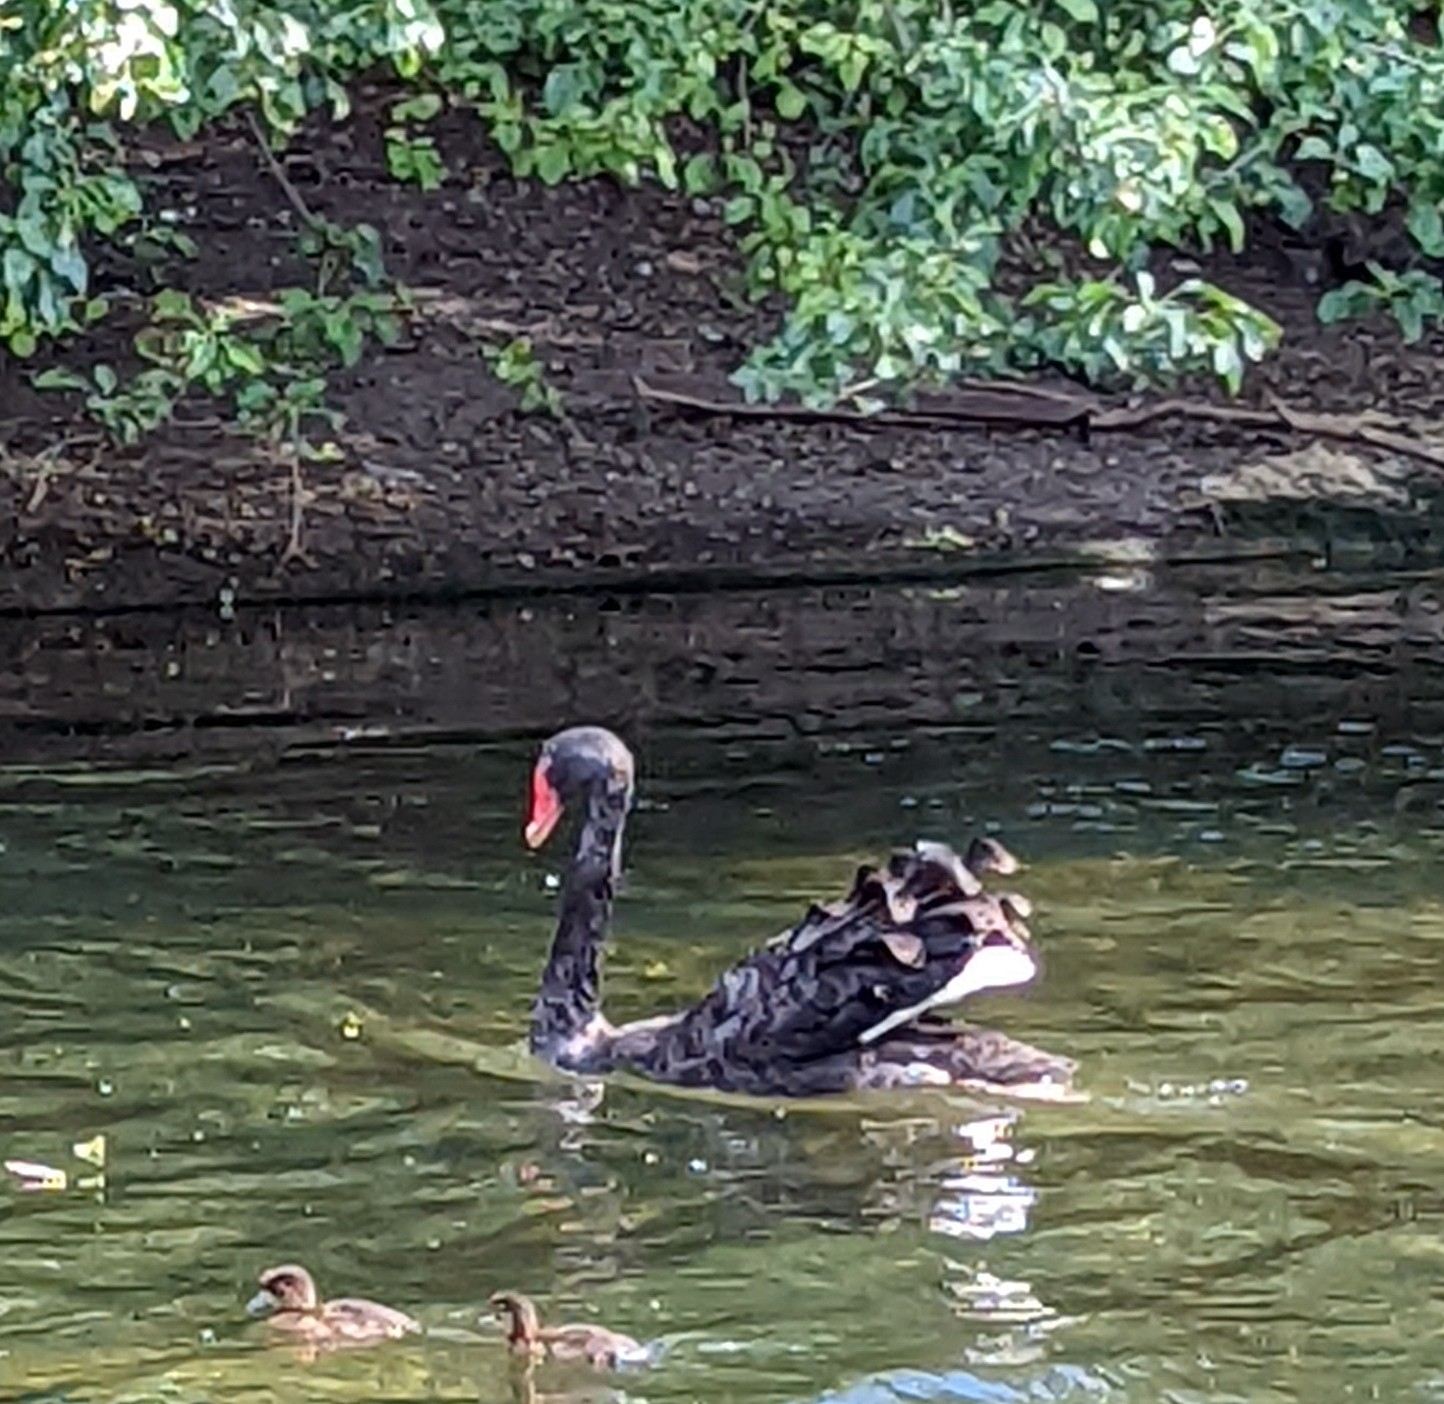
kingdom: Animalia
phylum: Chordata
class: Aves
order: Anseriformes
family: Anatidae
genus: Cygnus
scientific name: Cygnus atratus
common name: Black swan
